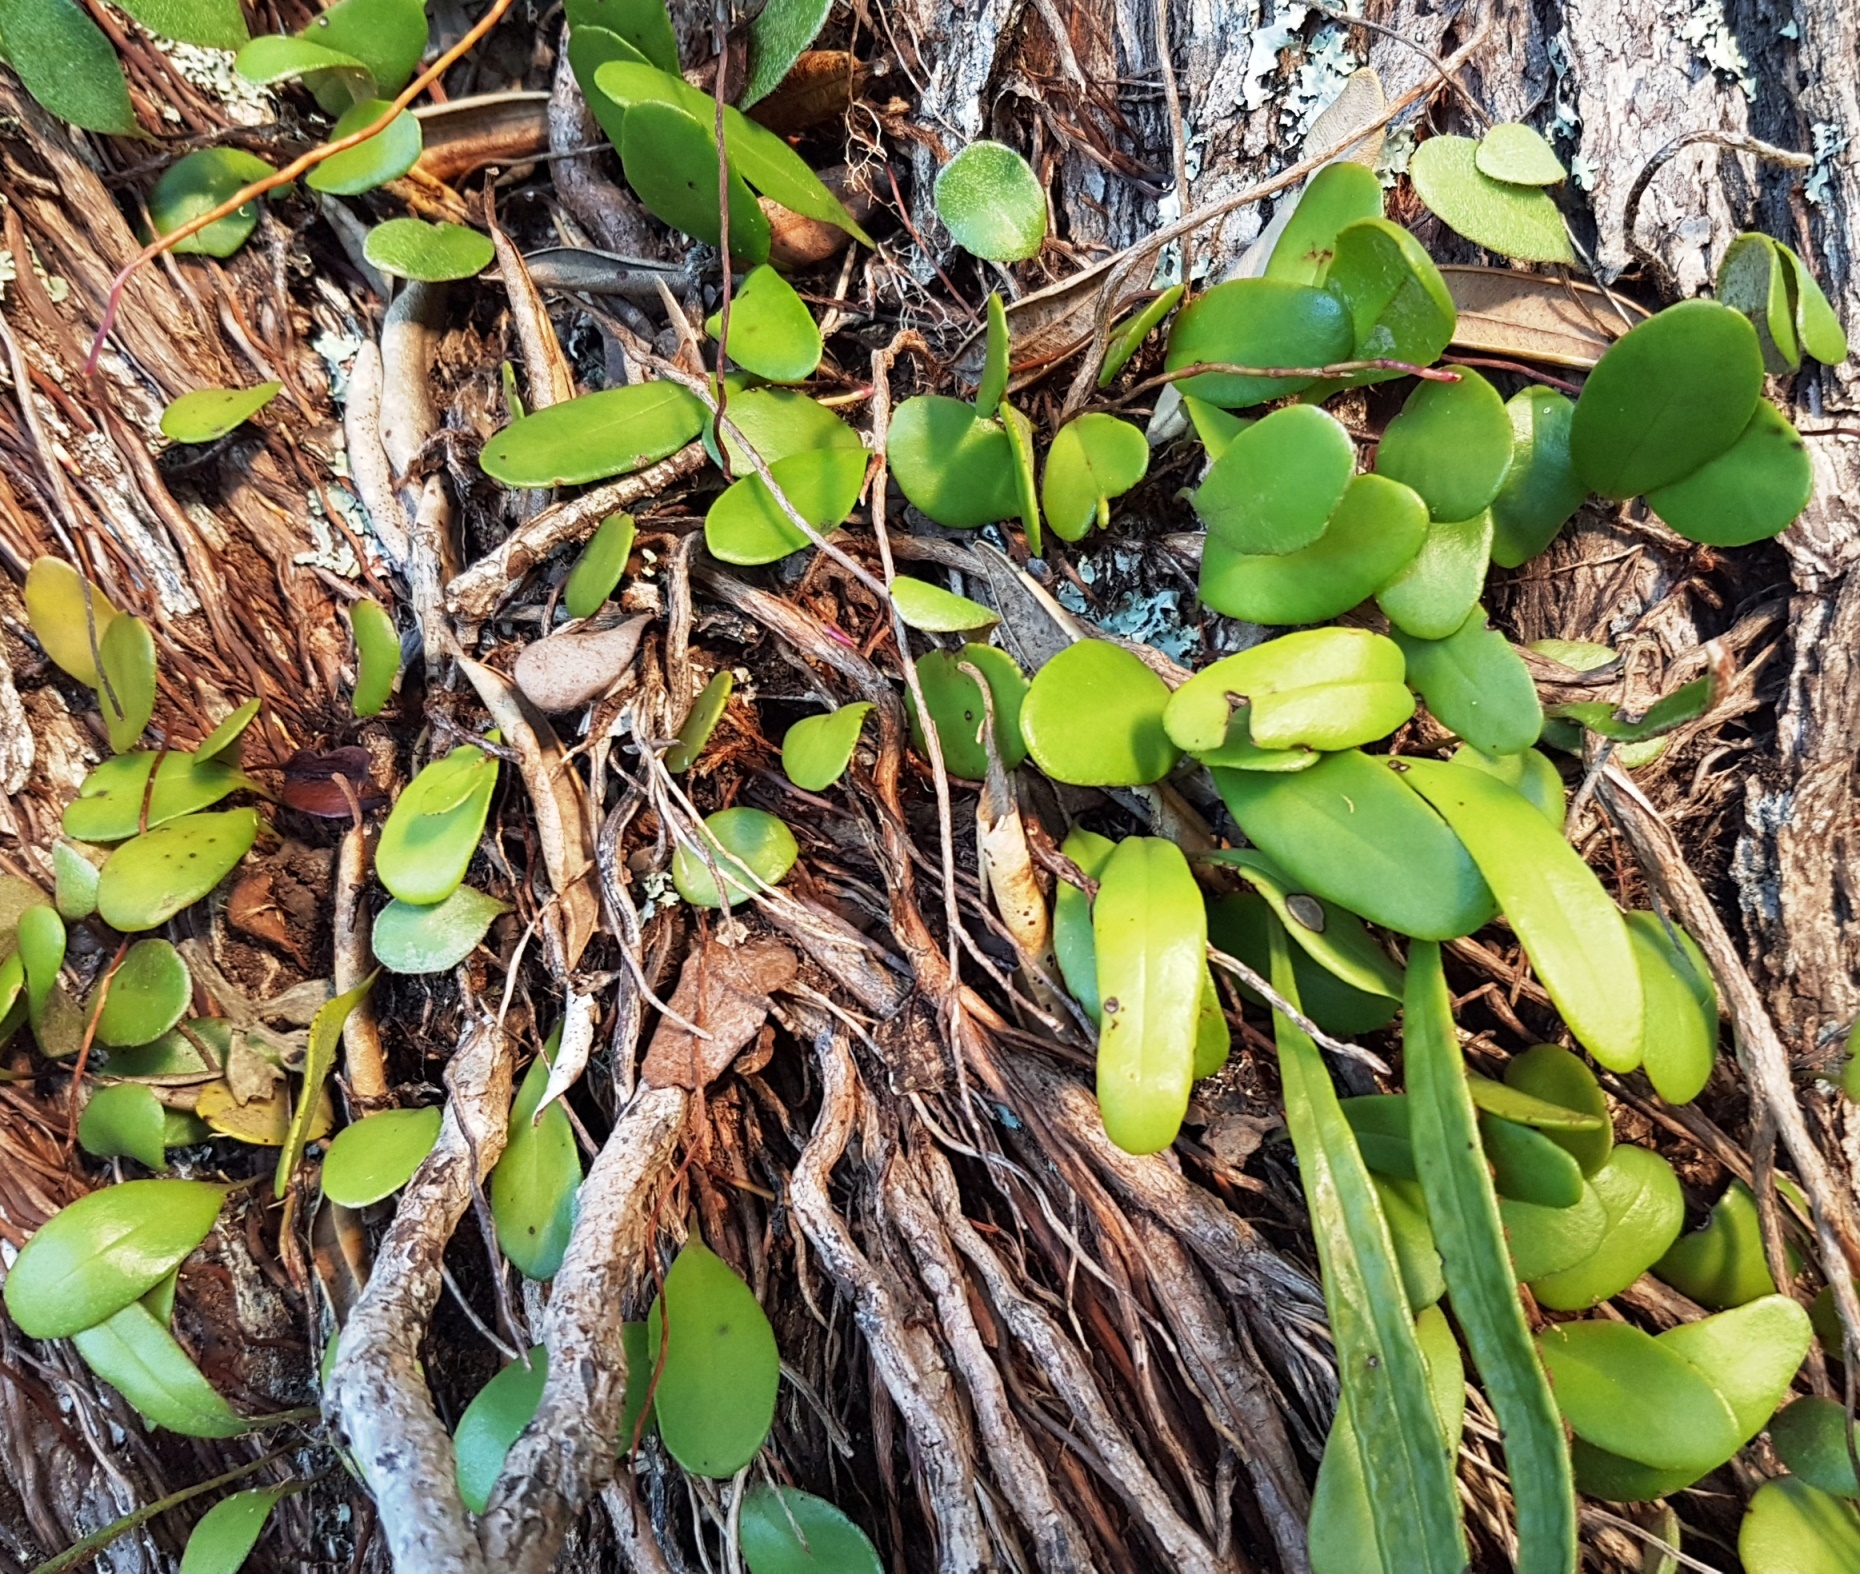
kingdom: Plantae
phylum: Tracheophyta
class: Polypodiopsida
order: Polypodiales
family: Polypodiaceae
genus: Pyrrosia
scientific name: Pyrrosia eleagnifolia
